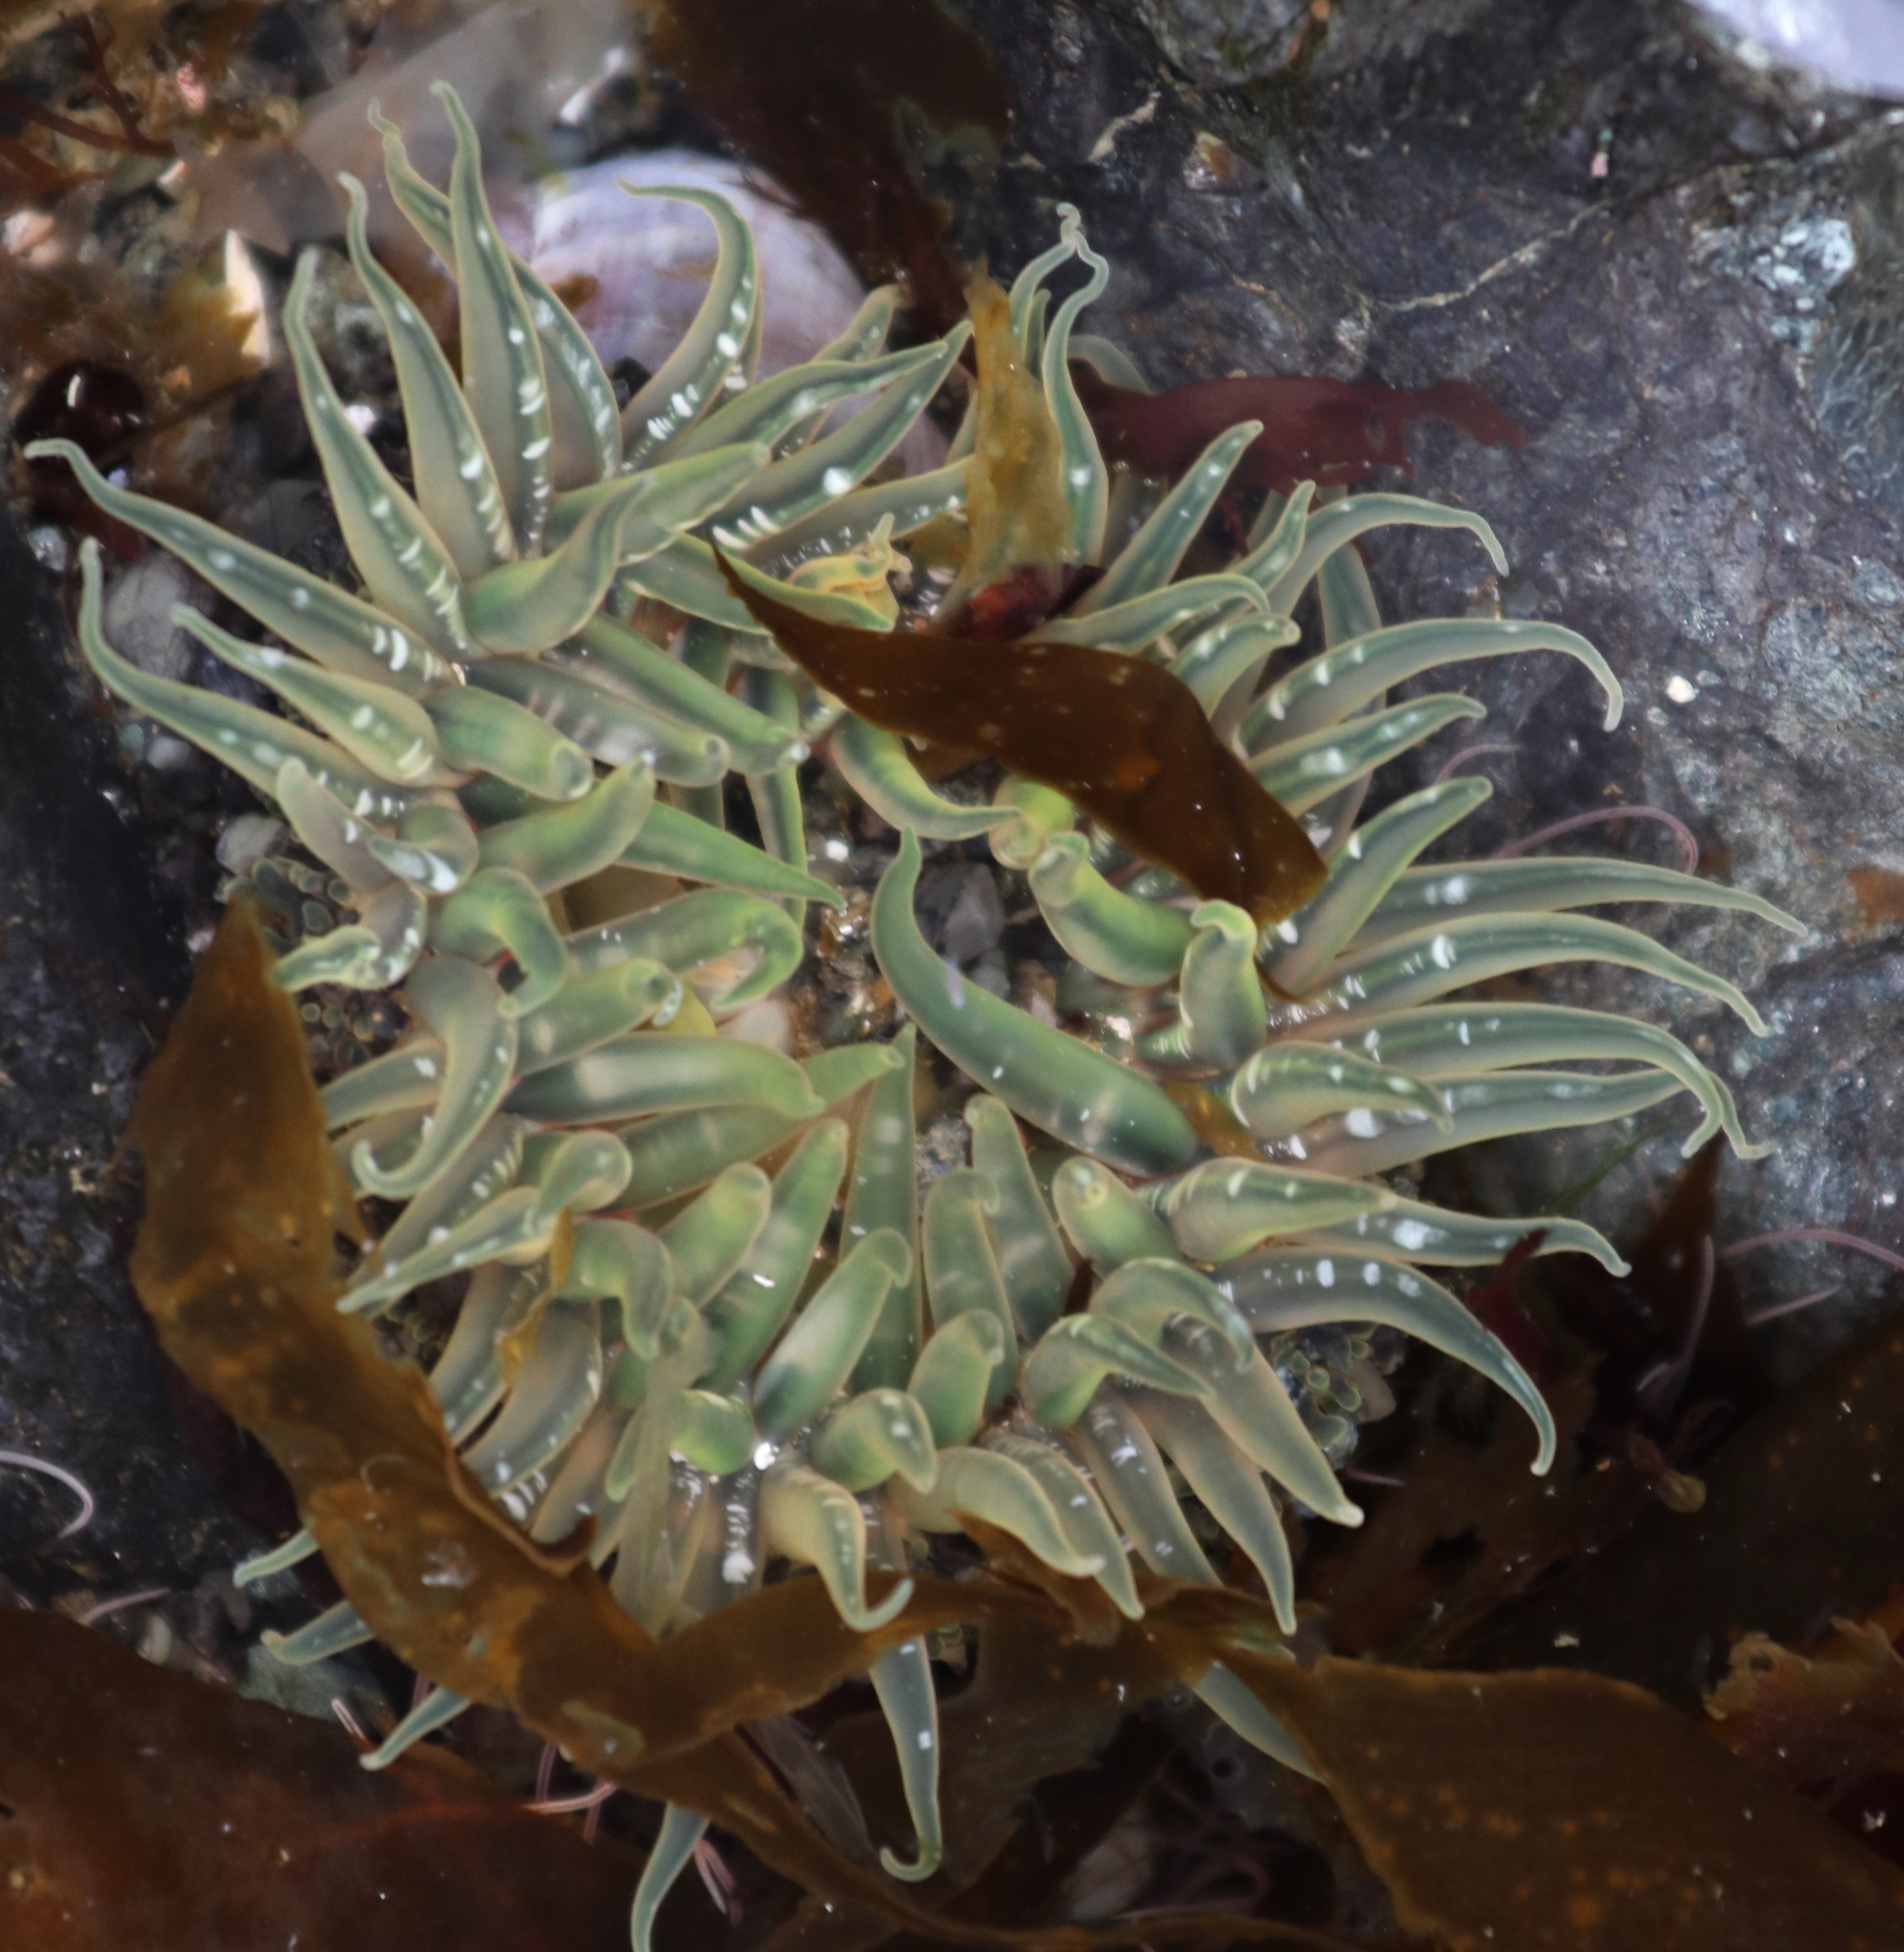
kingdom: Animalia
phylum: Cnidaria
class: Anthozoa
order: Actiniaria
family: Actiniidae
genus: Anthopleura
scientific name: Anthopleura artemisia
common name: Buried sea anemone
